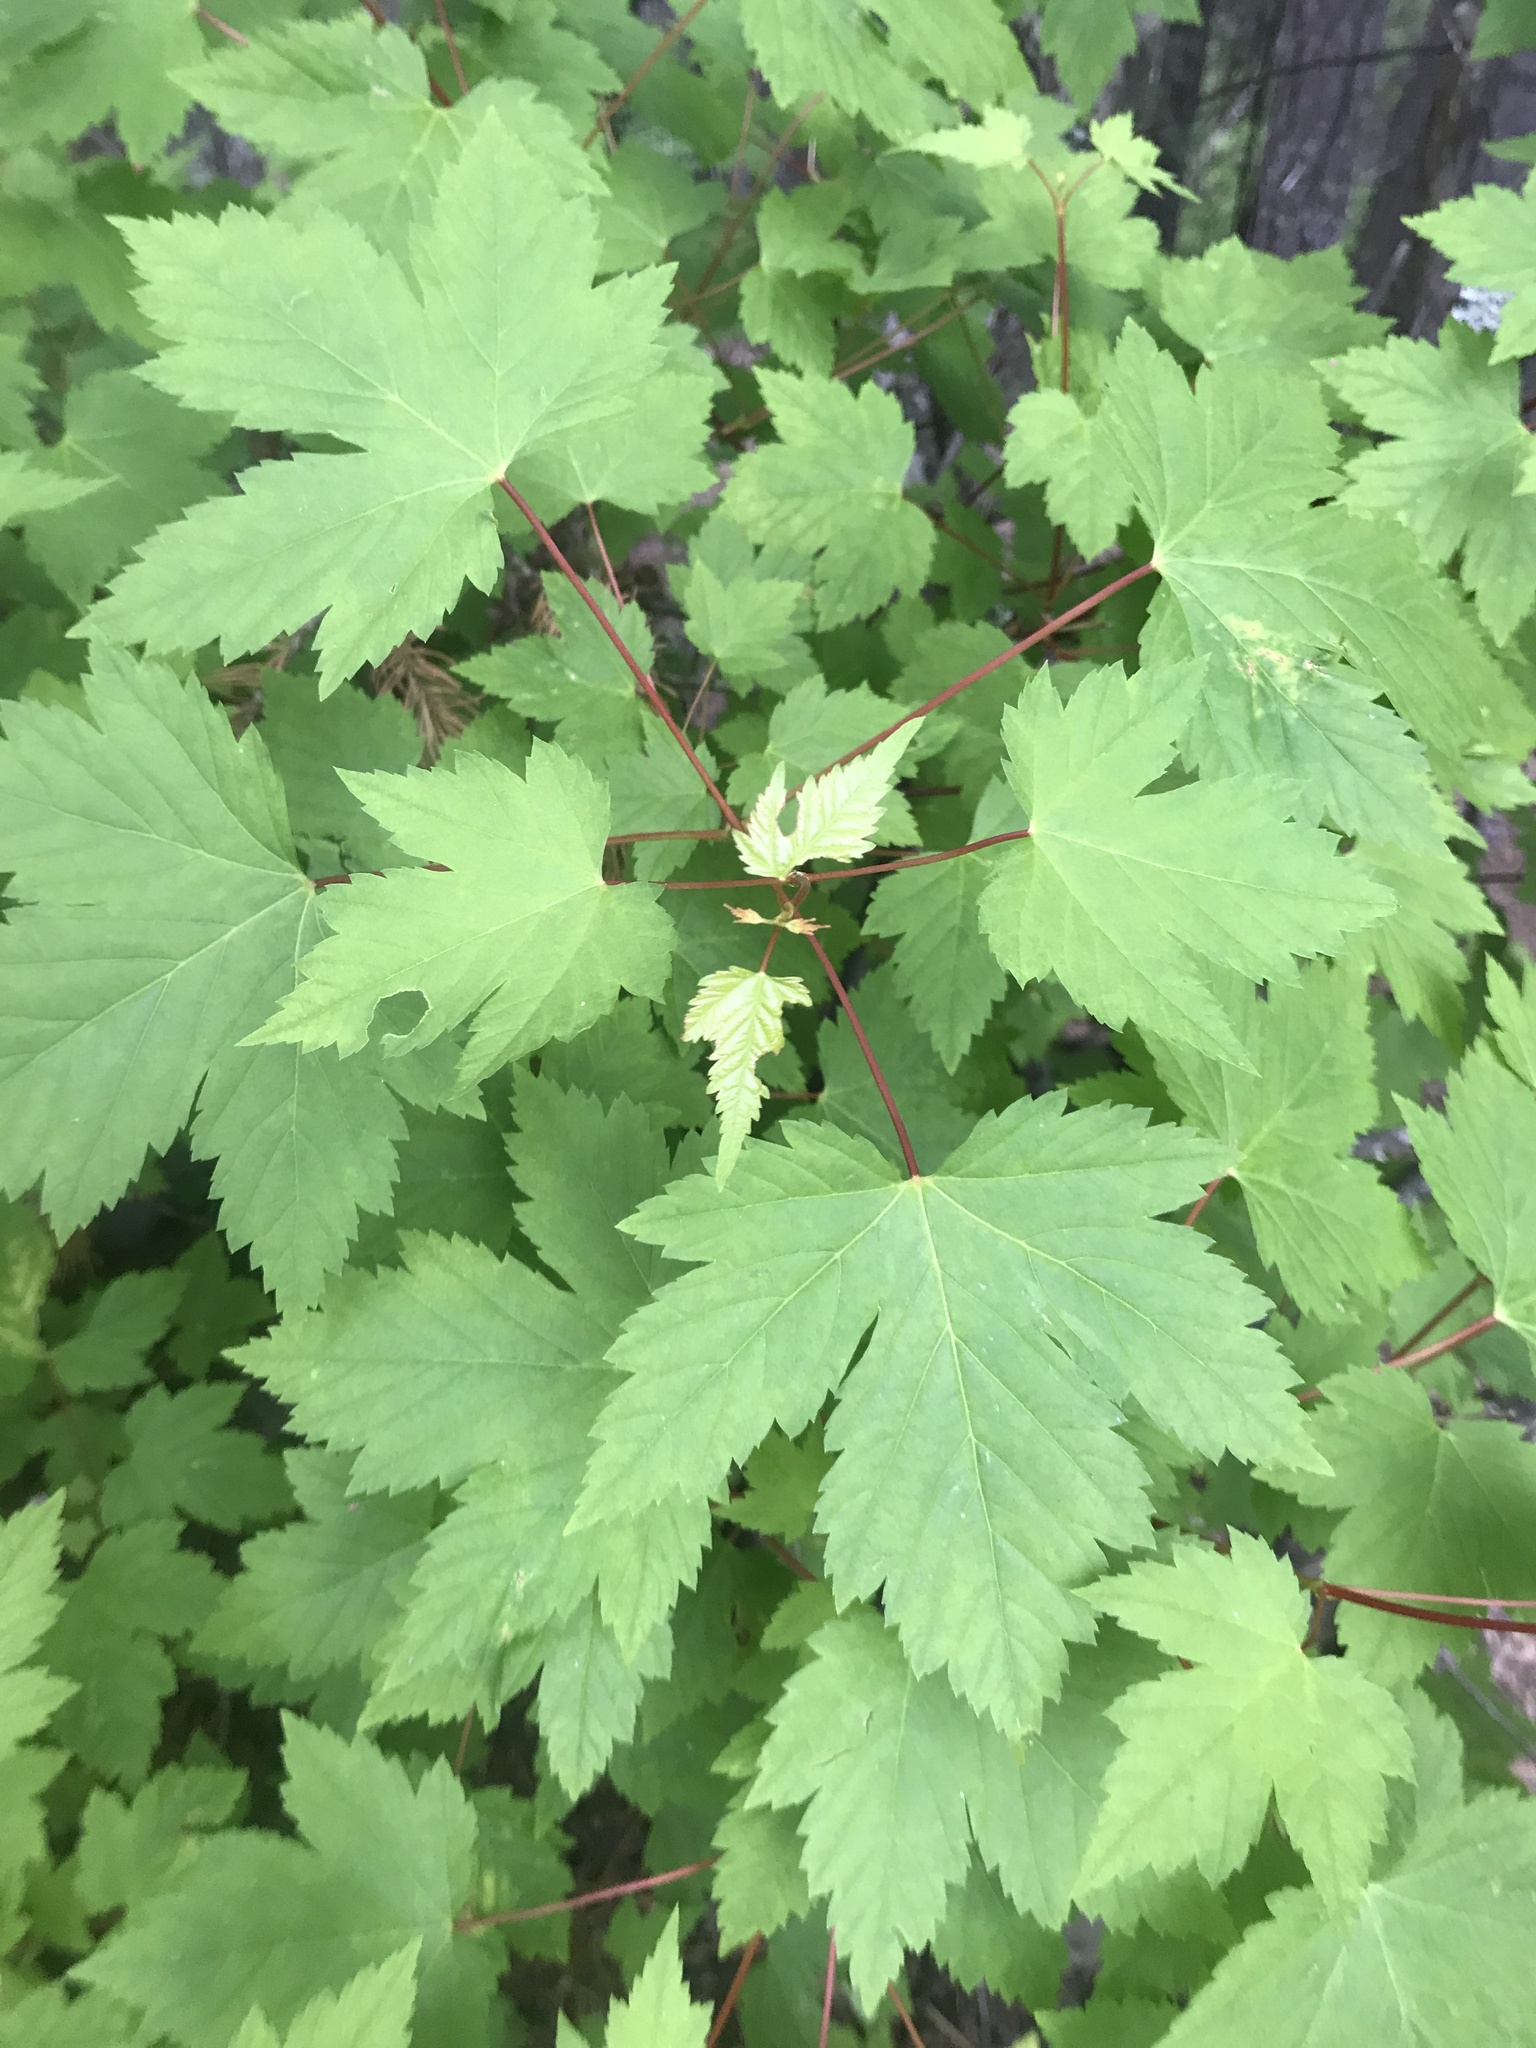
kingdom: Plantae
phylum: Tracheophyta
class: Magnoliopsida
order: Sapindales
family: Sapindaceae
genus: Acer
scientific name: Acer glabrum
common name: Rocky mountain maple
